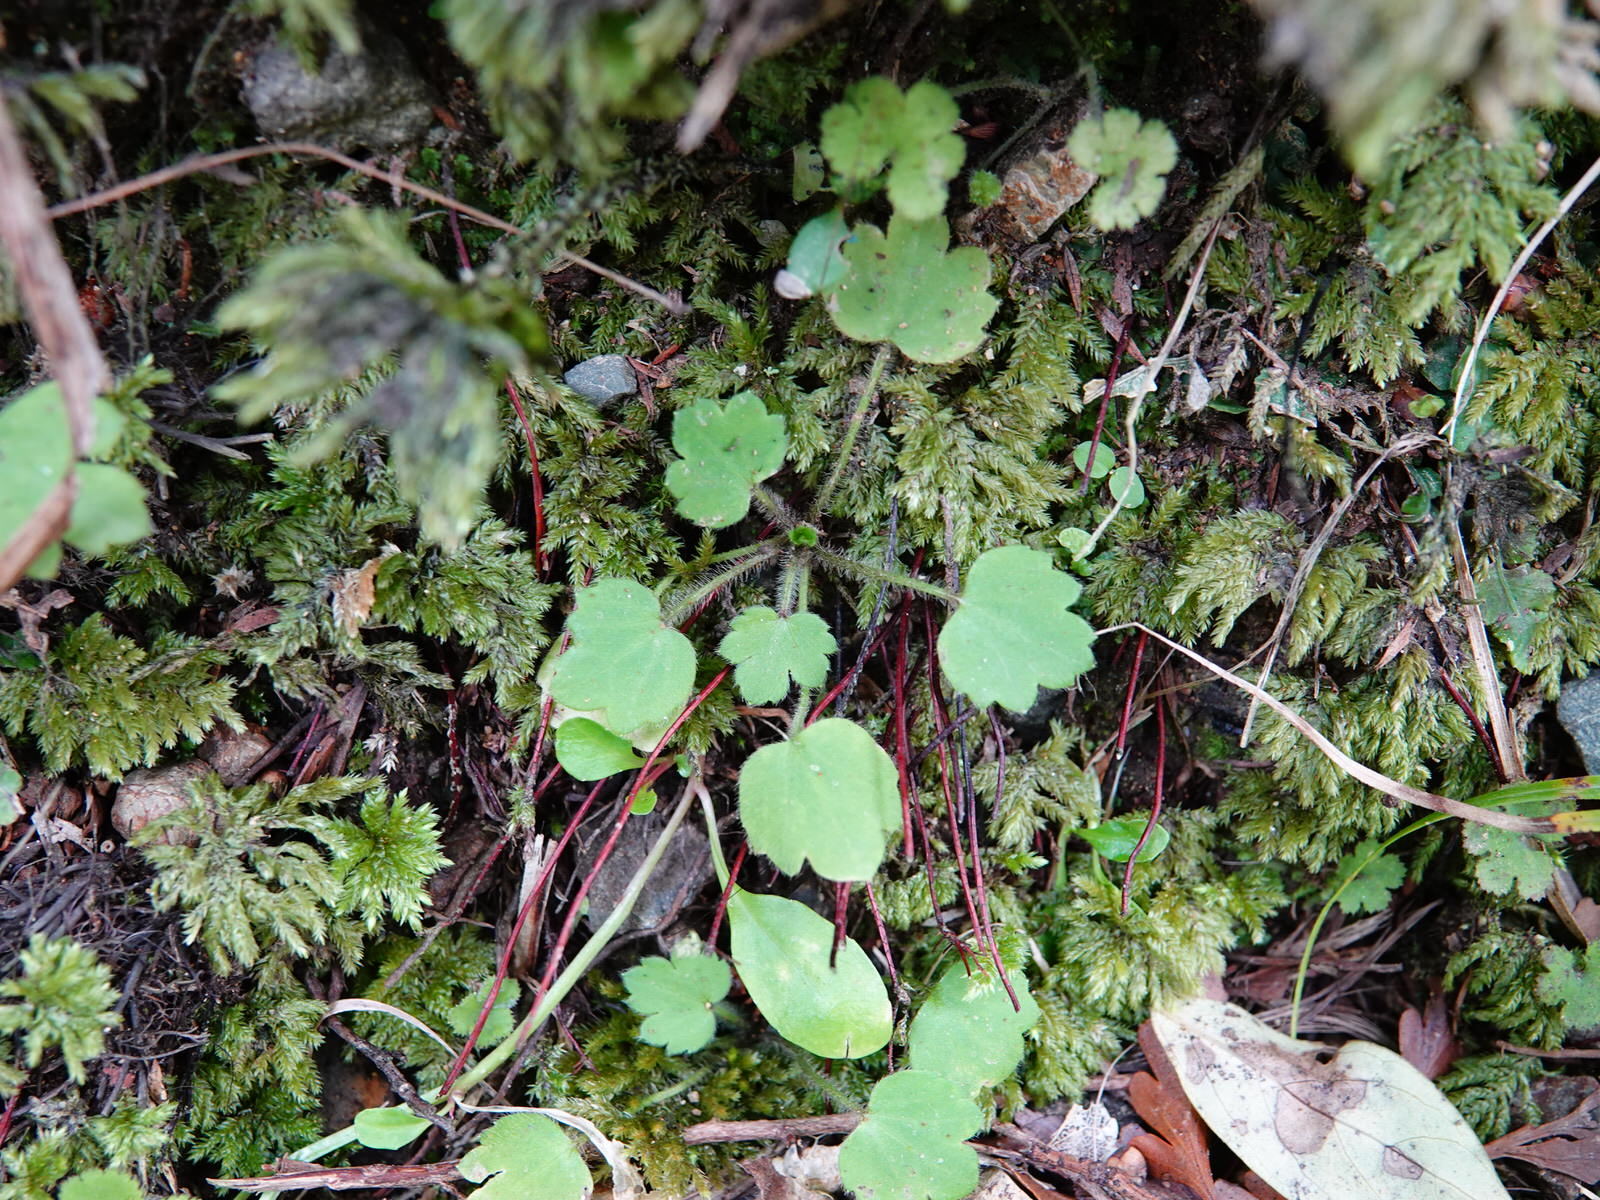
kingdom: Plantae
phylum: Tracheophyta
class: Magnoliopsida
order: Ranunculales
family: Ranunculaceae
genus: Ranunculus
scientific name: Ranunculus reflexus
